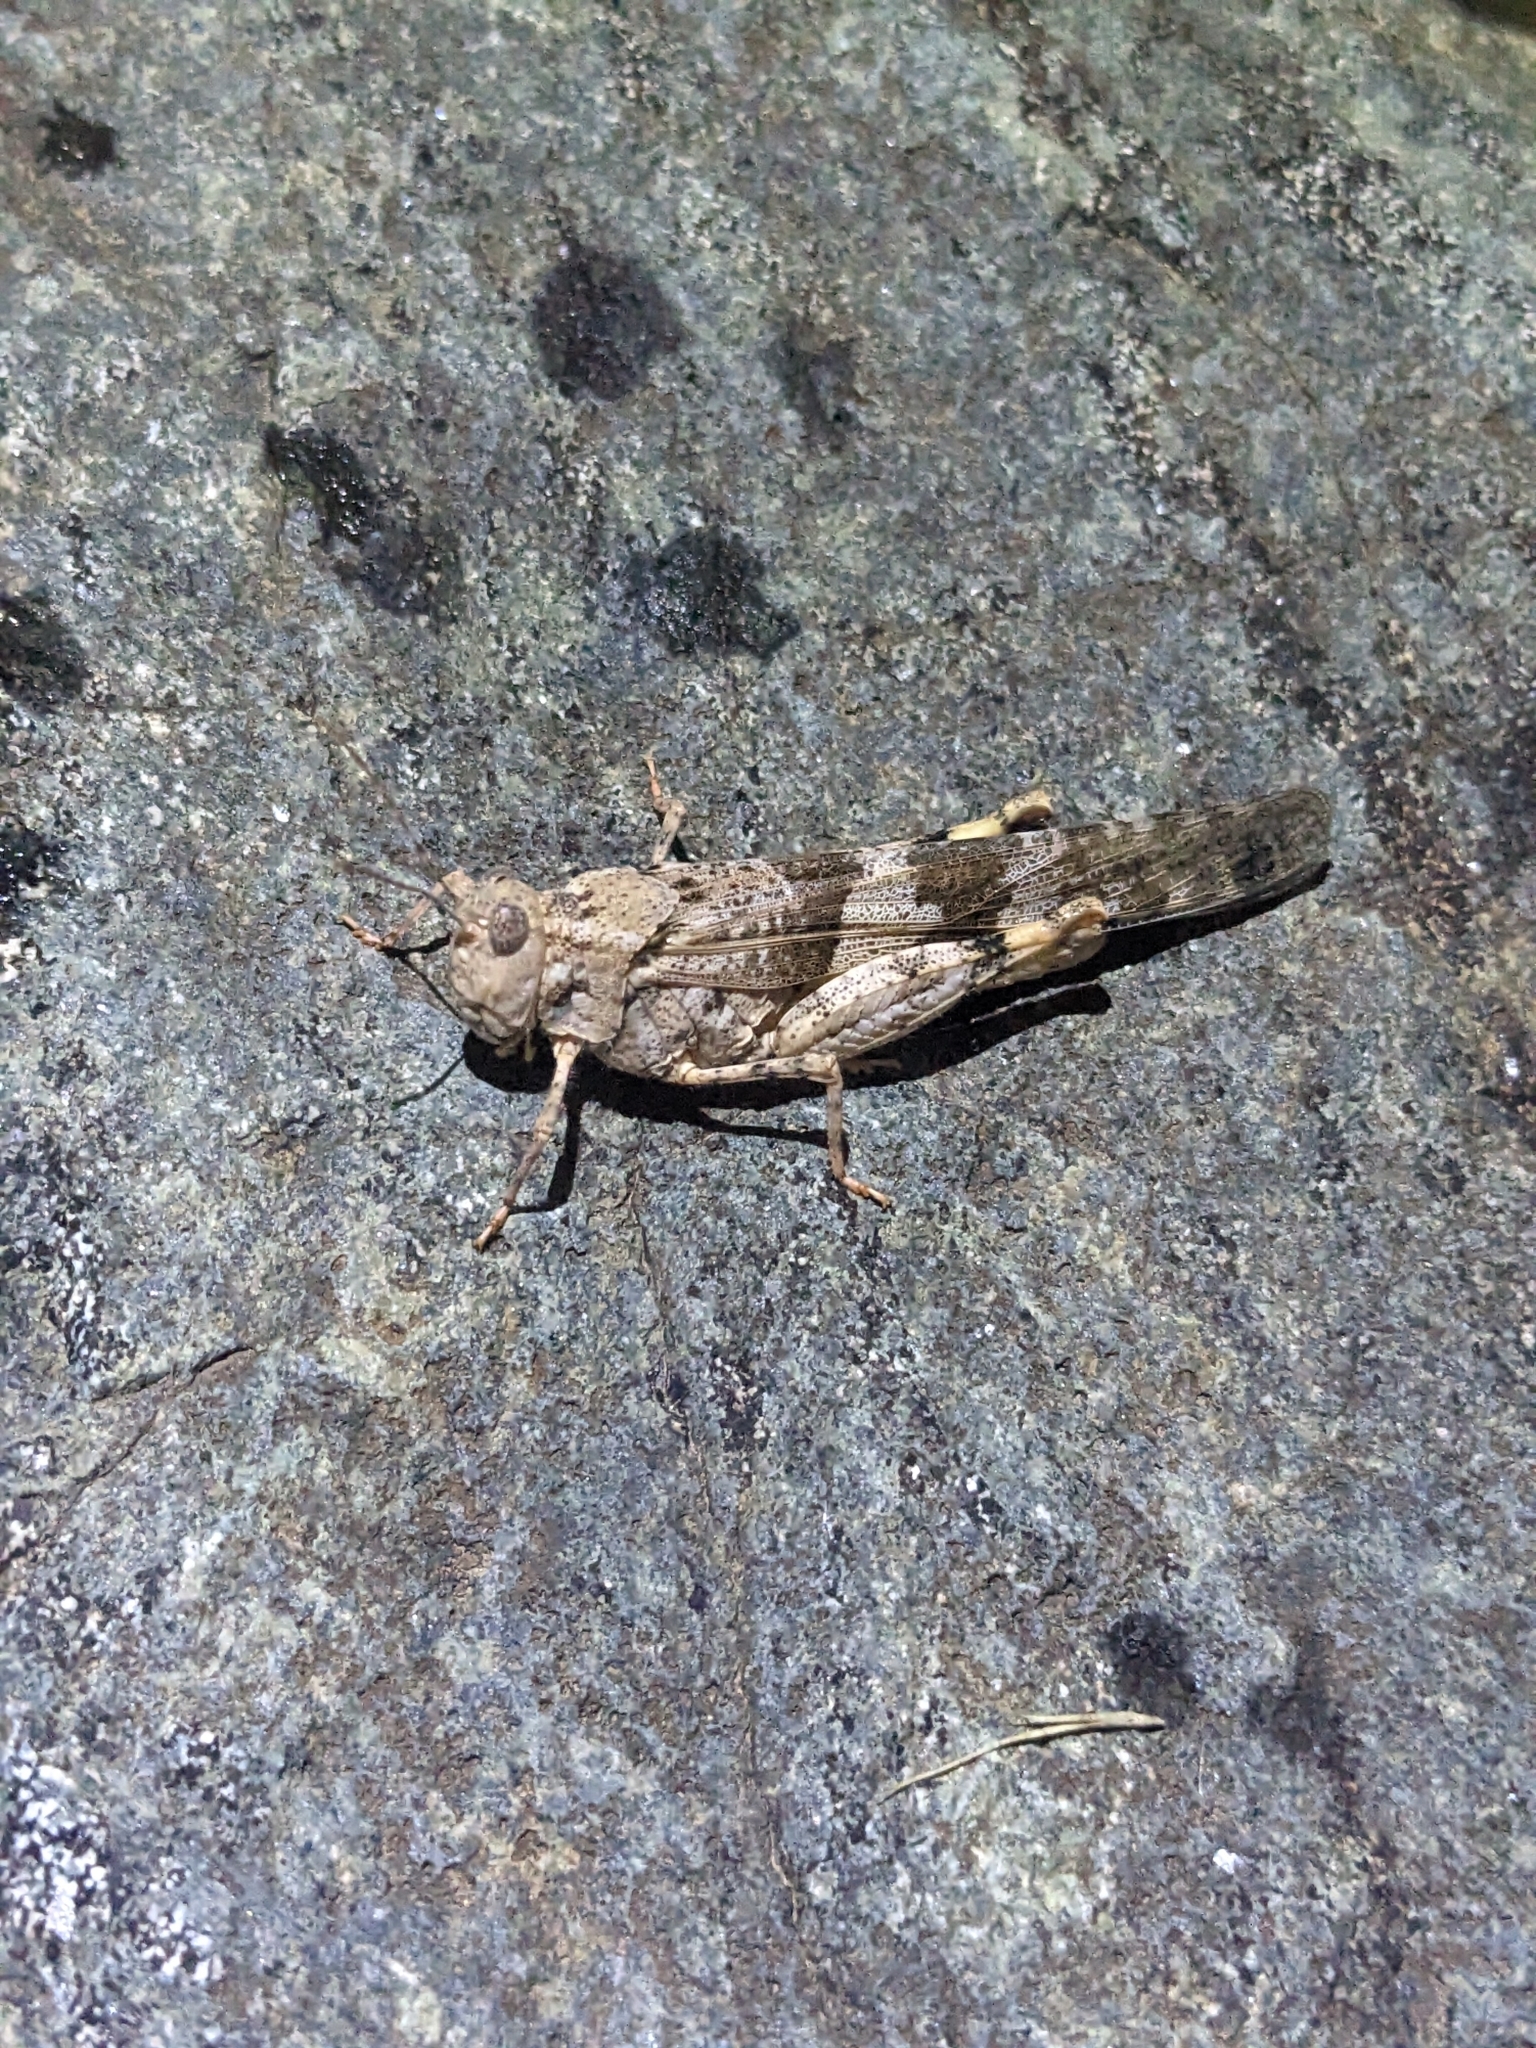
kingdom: Animalia
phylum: Arthropoda
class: Insecta
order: Orthoptera
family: Acrididae
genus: Trimerotropis
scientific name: Trimerotropis pallidipennis
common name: Pallid-winged grasshopper
